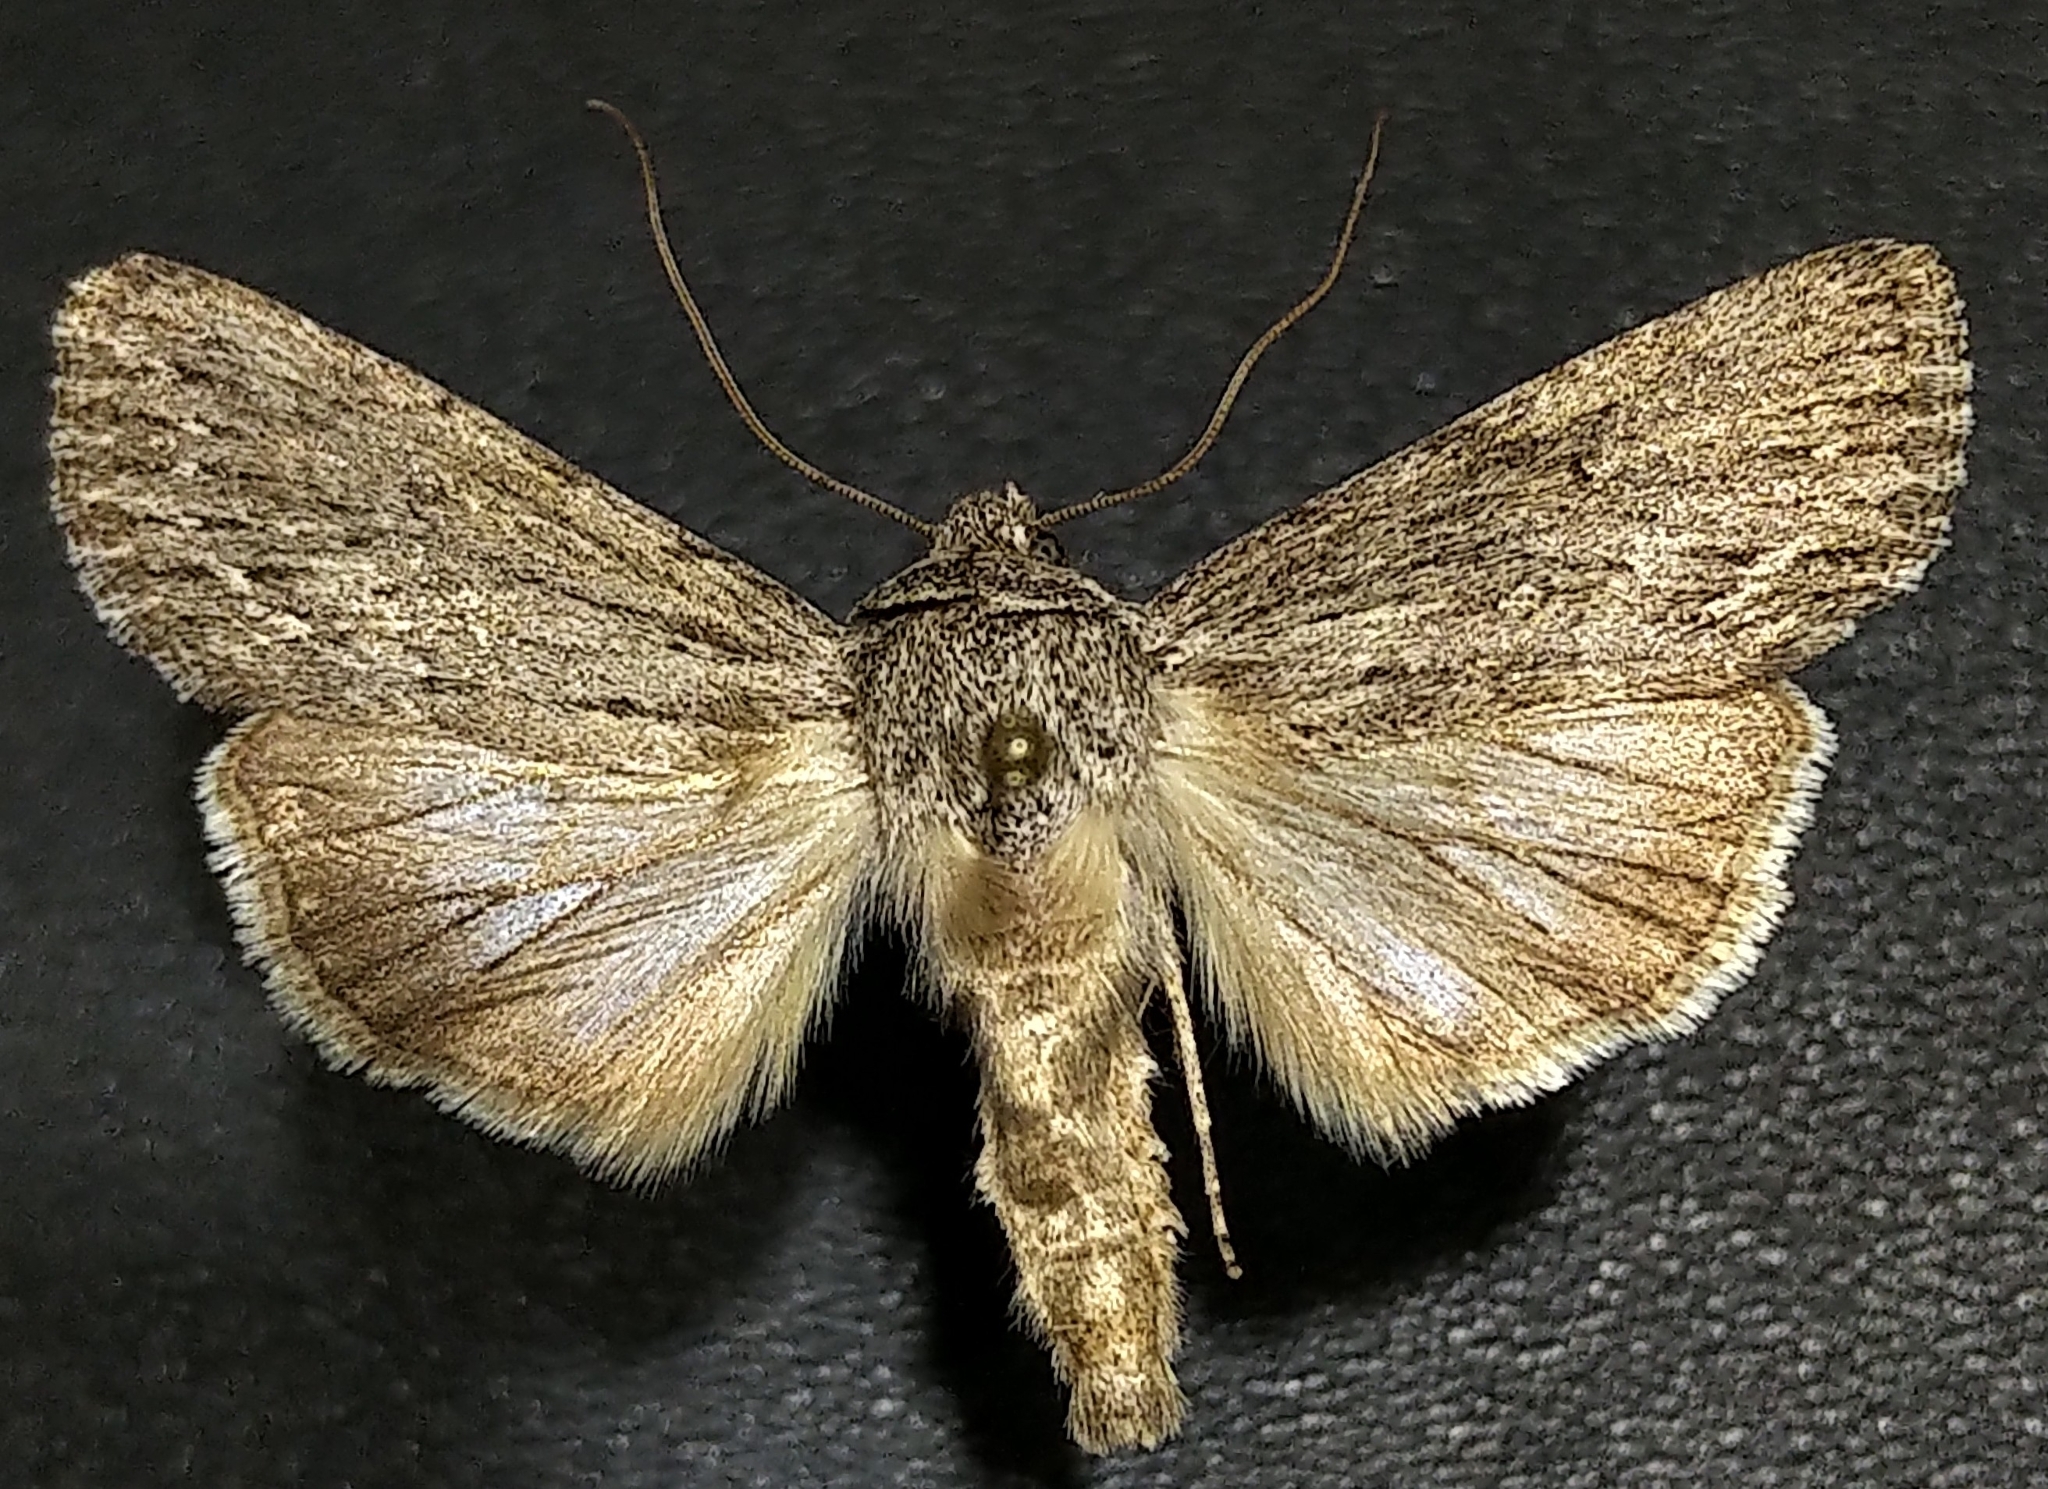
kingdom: Animalia
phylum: Arthropoda
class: Insecta
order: Lepidoptera
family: Noctuidae
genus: Sympistis
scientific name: Sympistis chons
